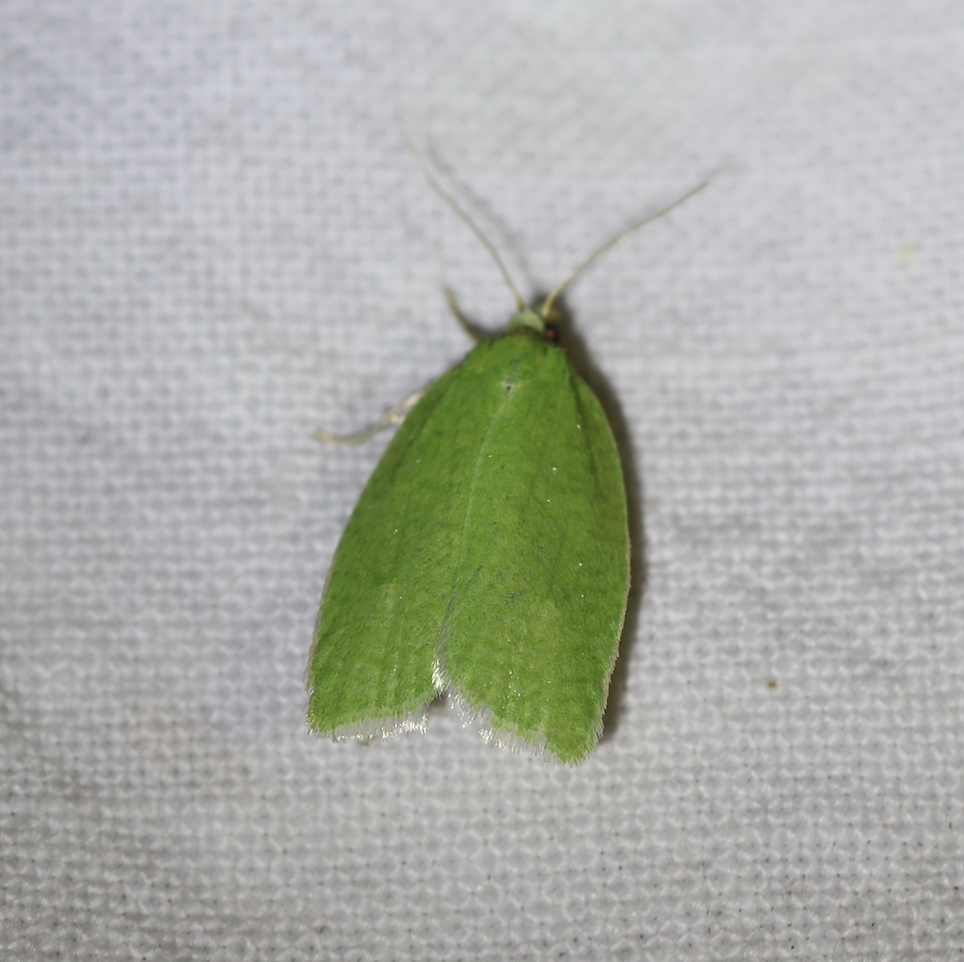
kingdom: Animalia
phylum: Arthropoda
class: Insecta
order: Lepidoptera
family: Tortricidae
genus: Tortrix
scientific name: Tortrix viridana
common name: Green oak tortrix
